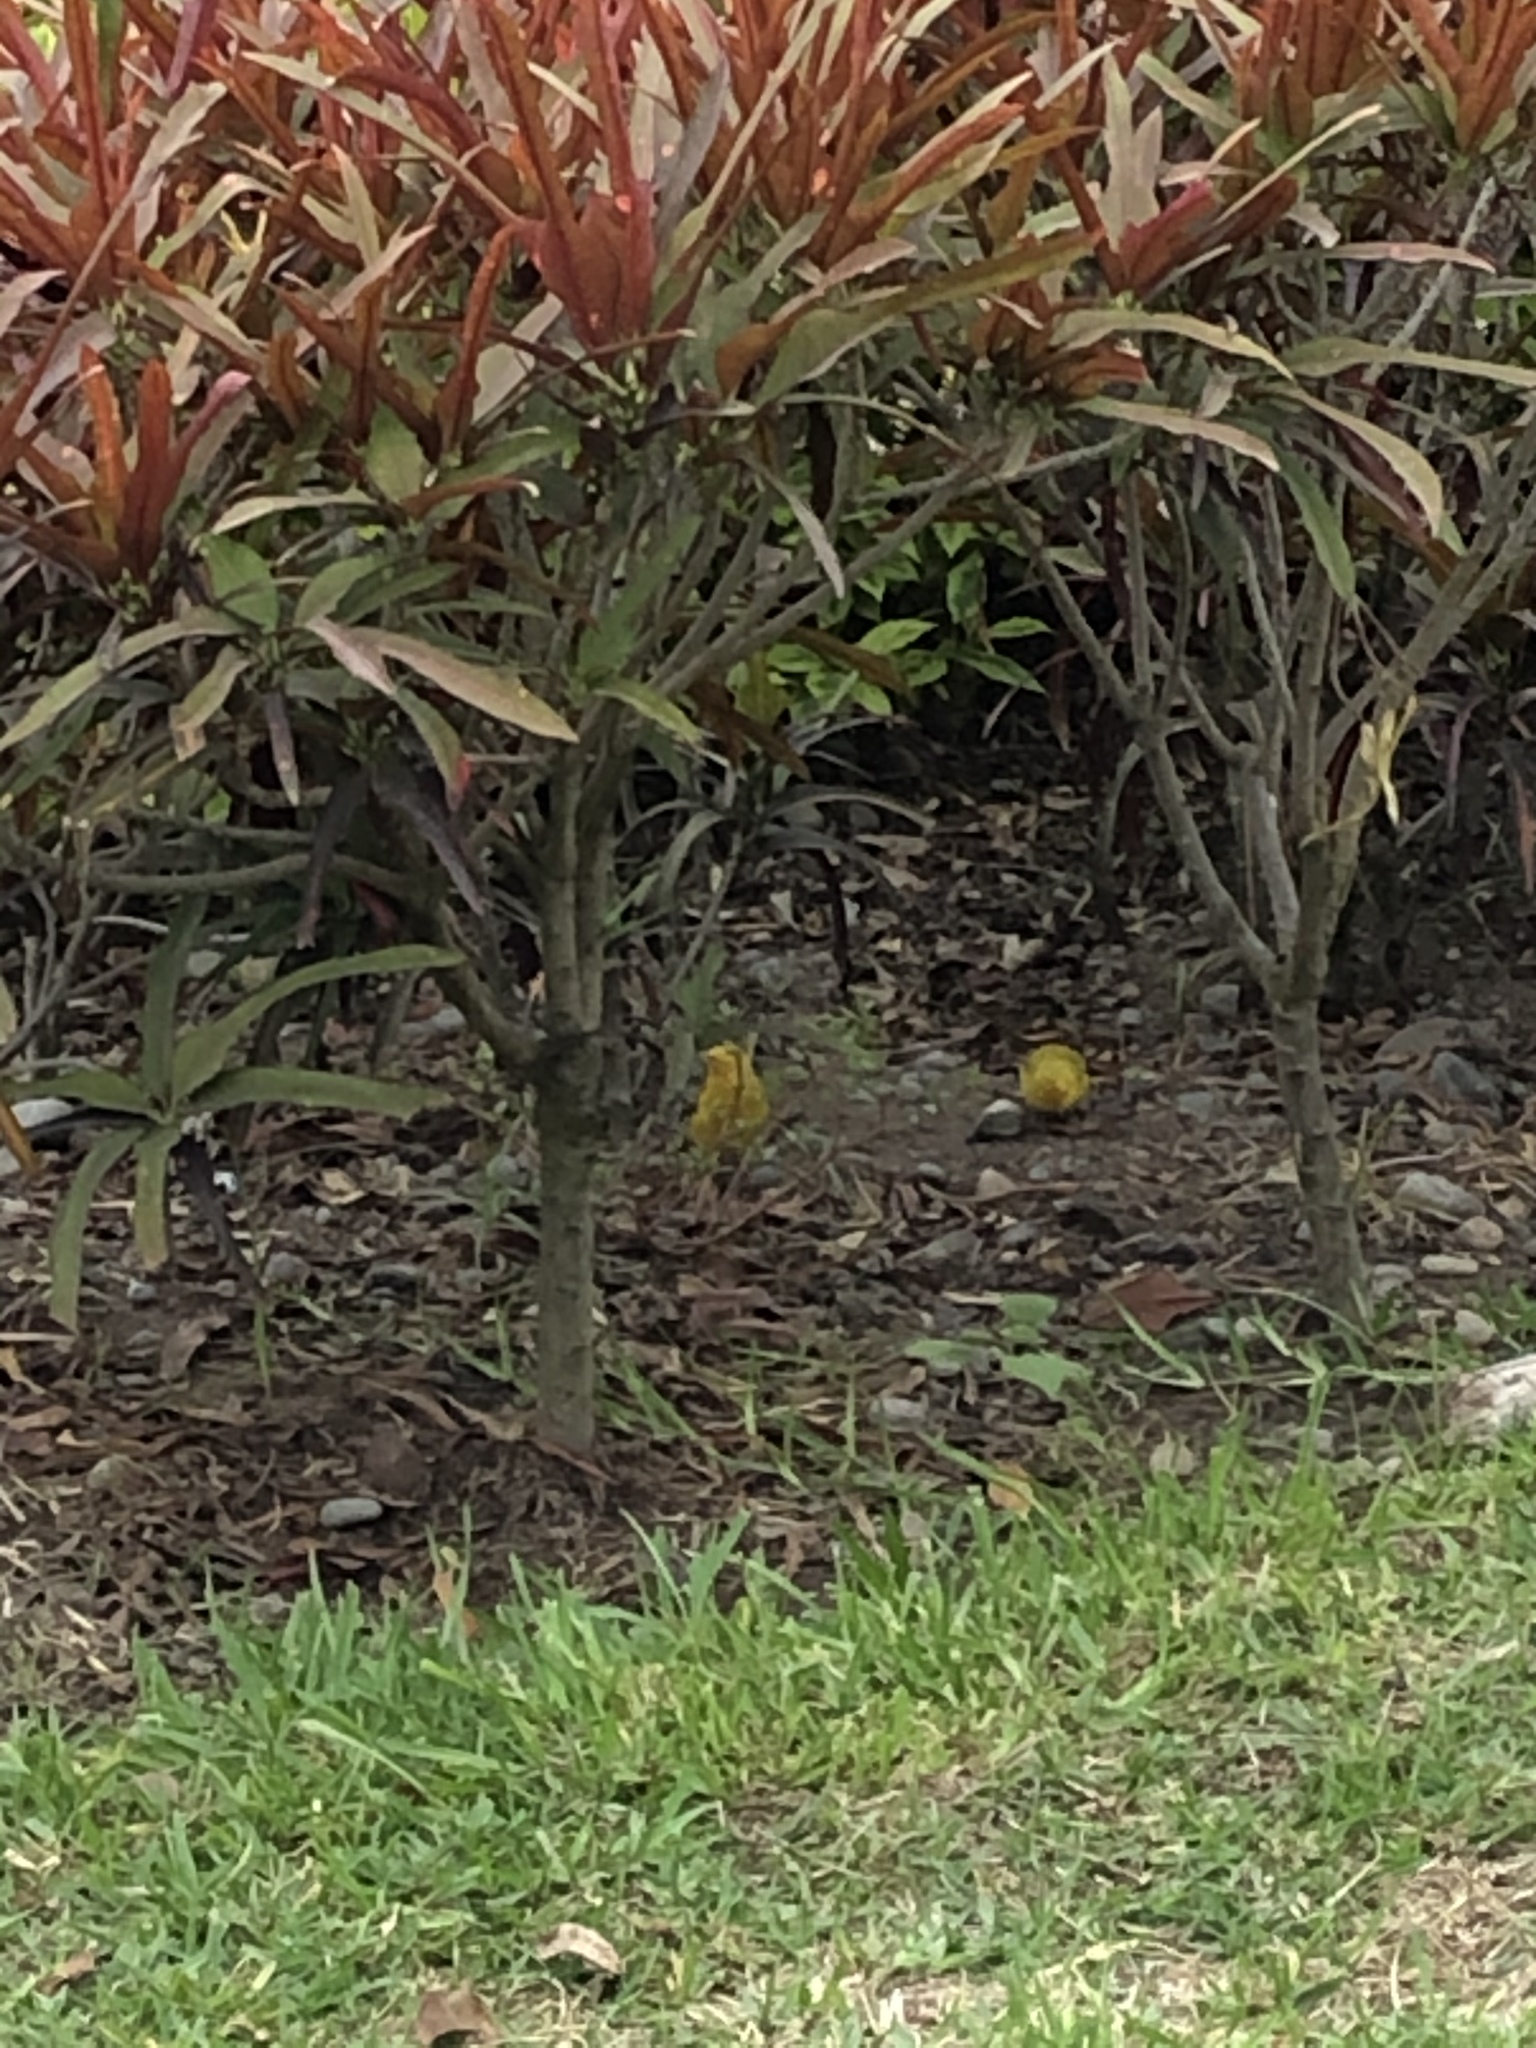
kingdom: Animalia
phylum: Chordata
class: Aves
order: Passeriformes
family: Thraupidae
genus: Sicalis
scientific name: Sicalis flaveola
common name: Saffron finch
